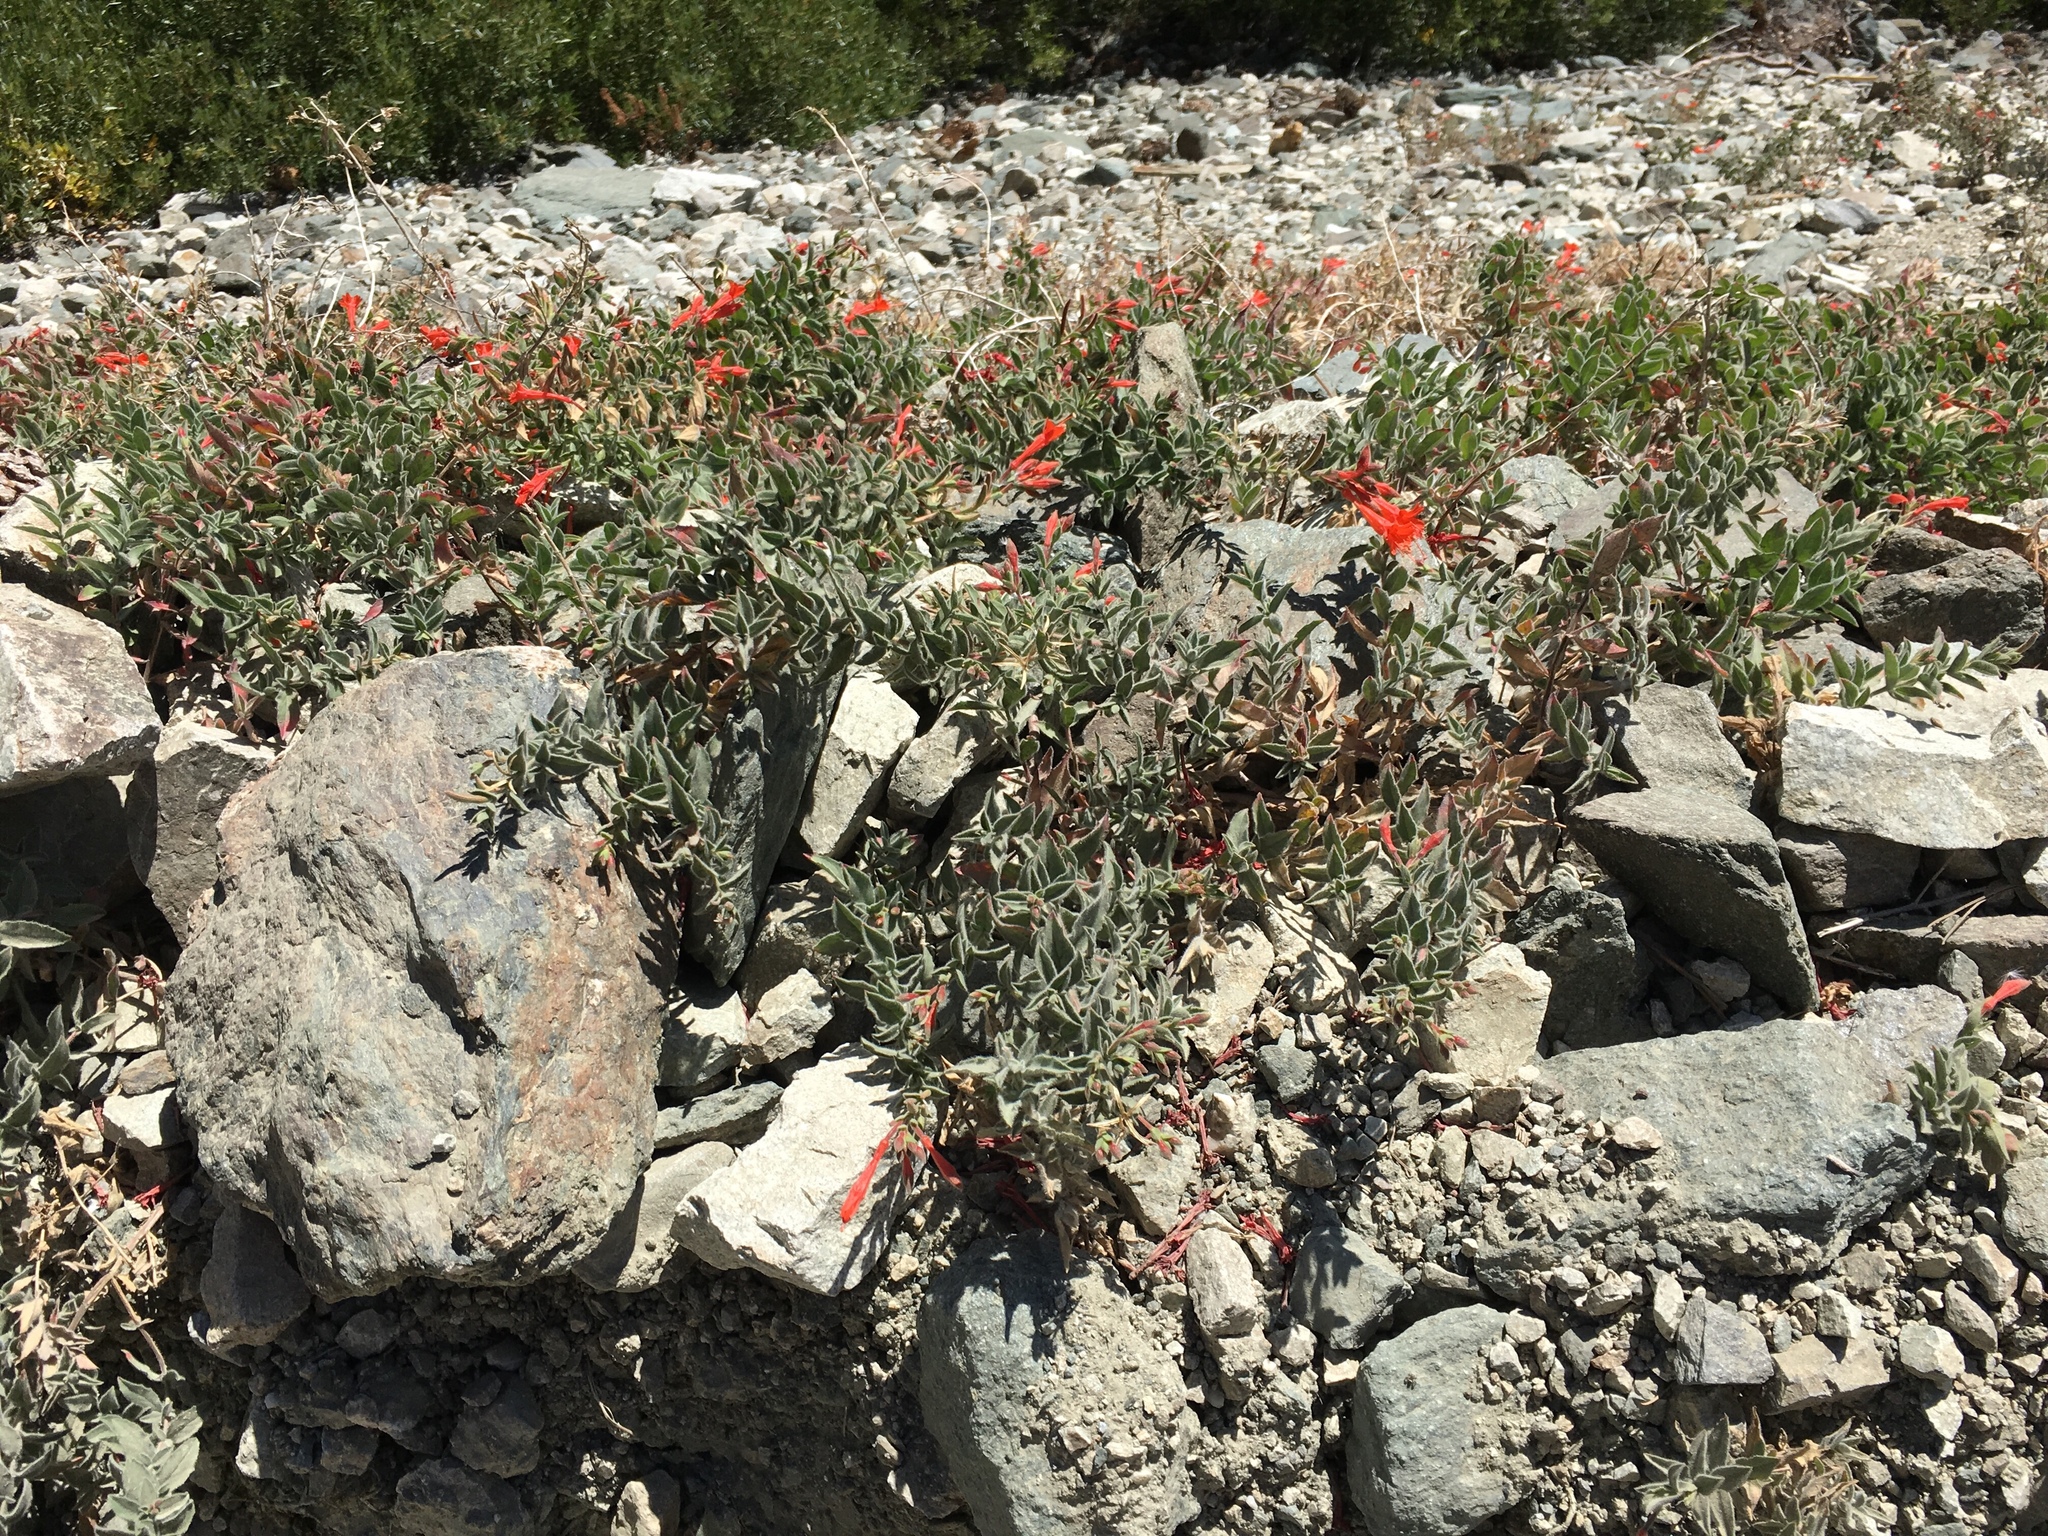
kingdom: Plantae
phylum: Tracheophyta
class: Magnoliopsida
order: Myrtales
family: Onagraceae
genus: Epilobium
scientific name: Epilobium canum
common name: California-fuchsia
